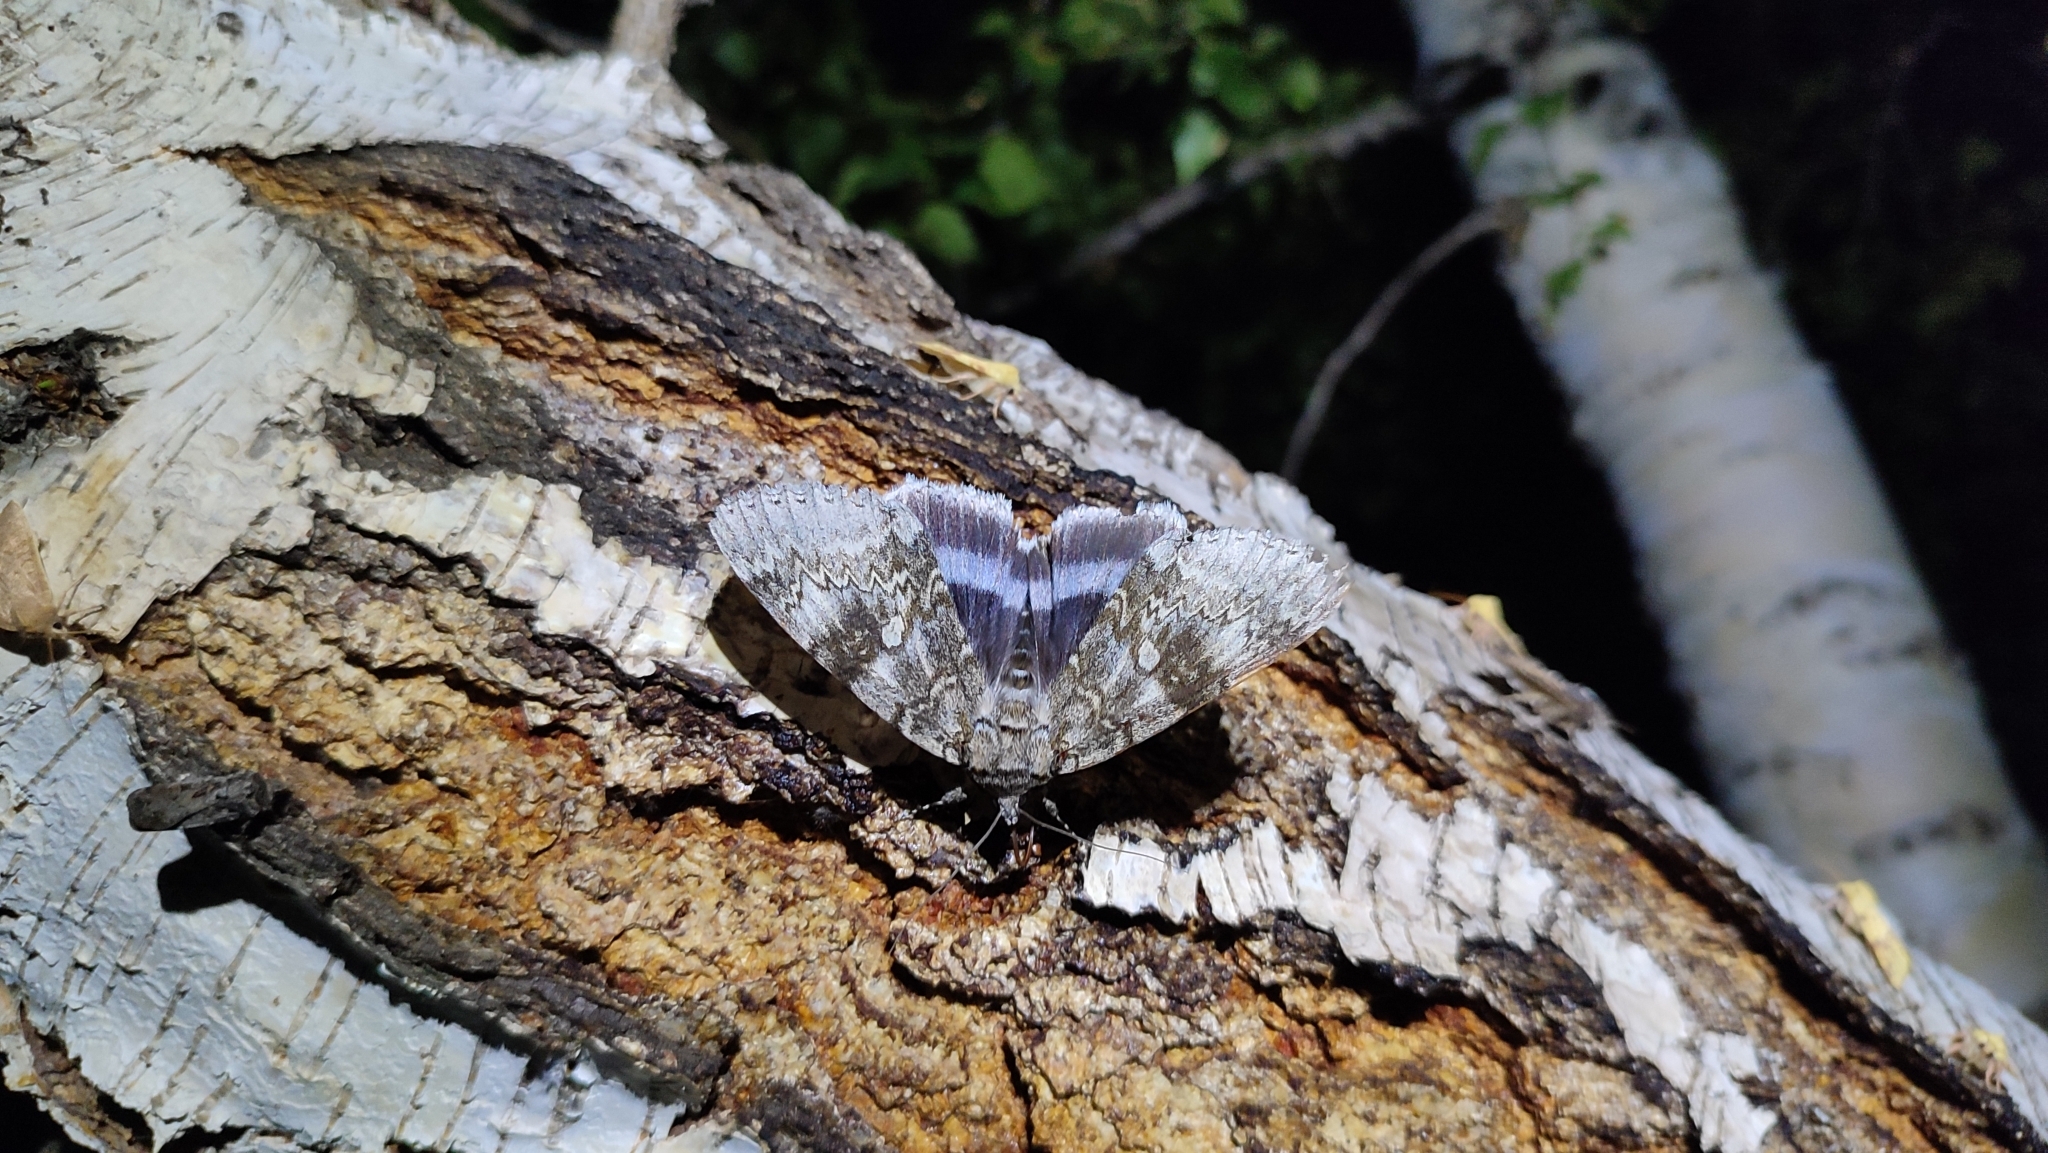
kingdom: Animalia
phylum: Arthropoda
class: Insecta
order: Lepidoptera
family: Erebidae
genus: Catocala
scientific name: Catocala fraxini
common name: Clifden nonpareil
